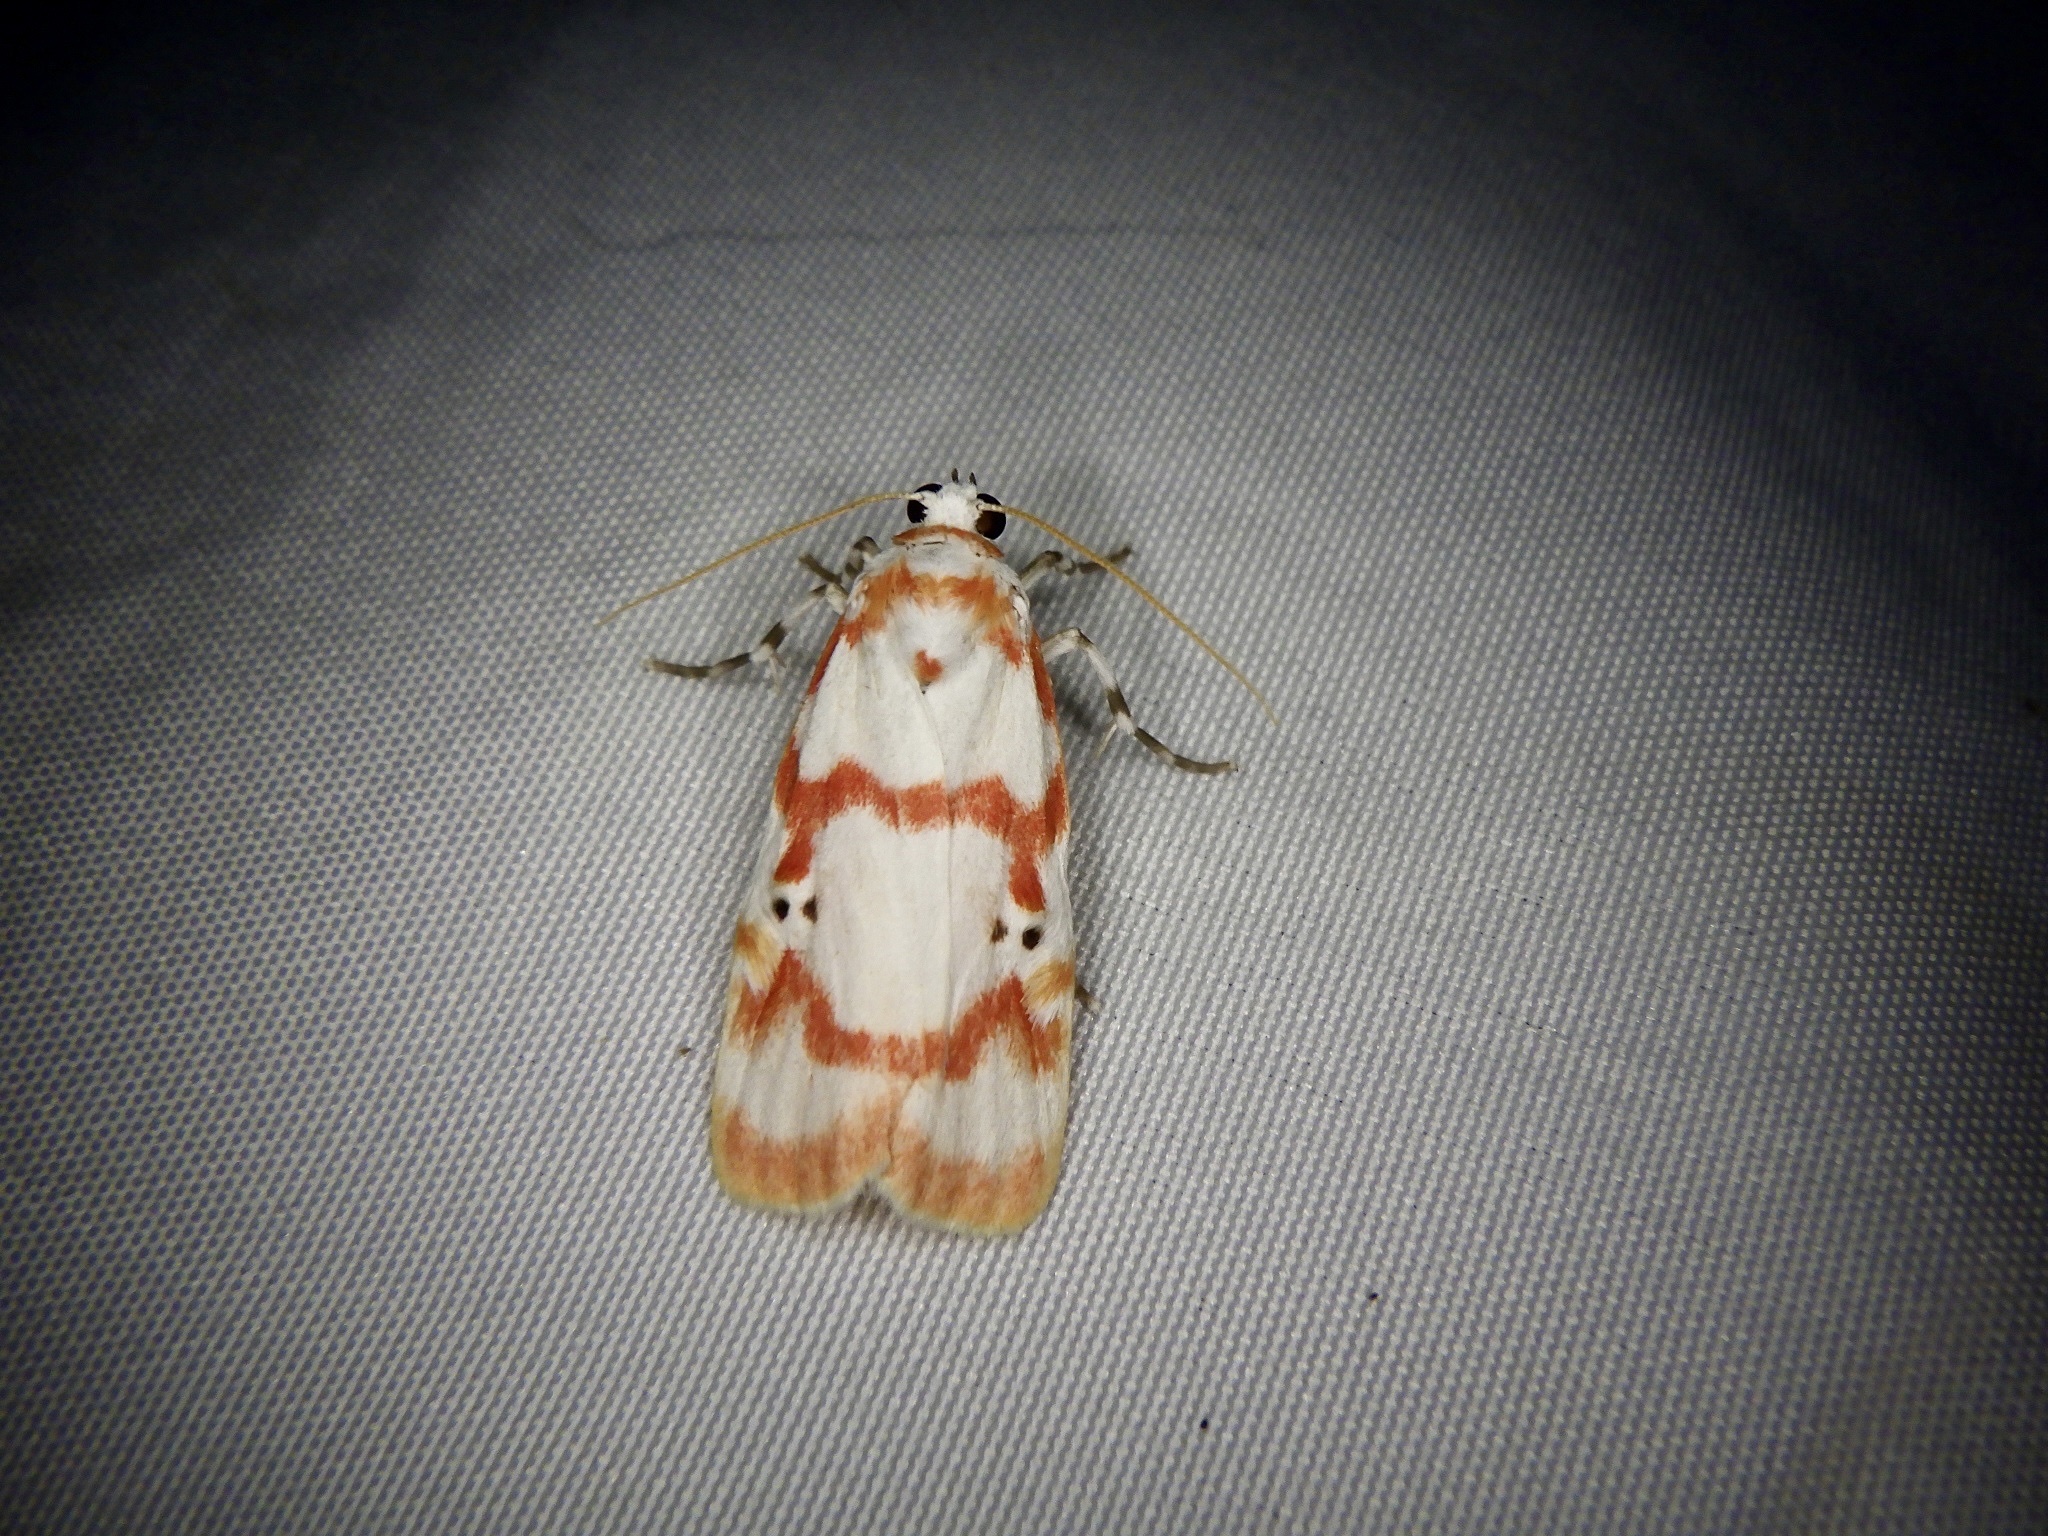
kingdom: Animalia
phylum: Arthropoda
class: Insecta
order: Lepidoptera
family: Erebidae
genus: Cyana
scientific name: Cyana hamata
